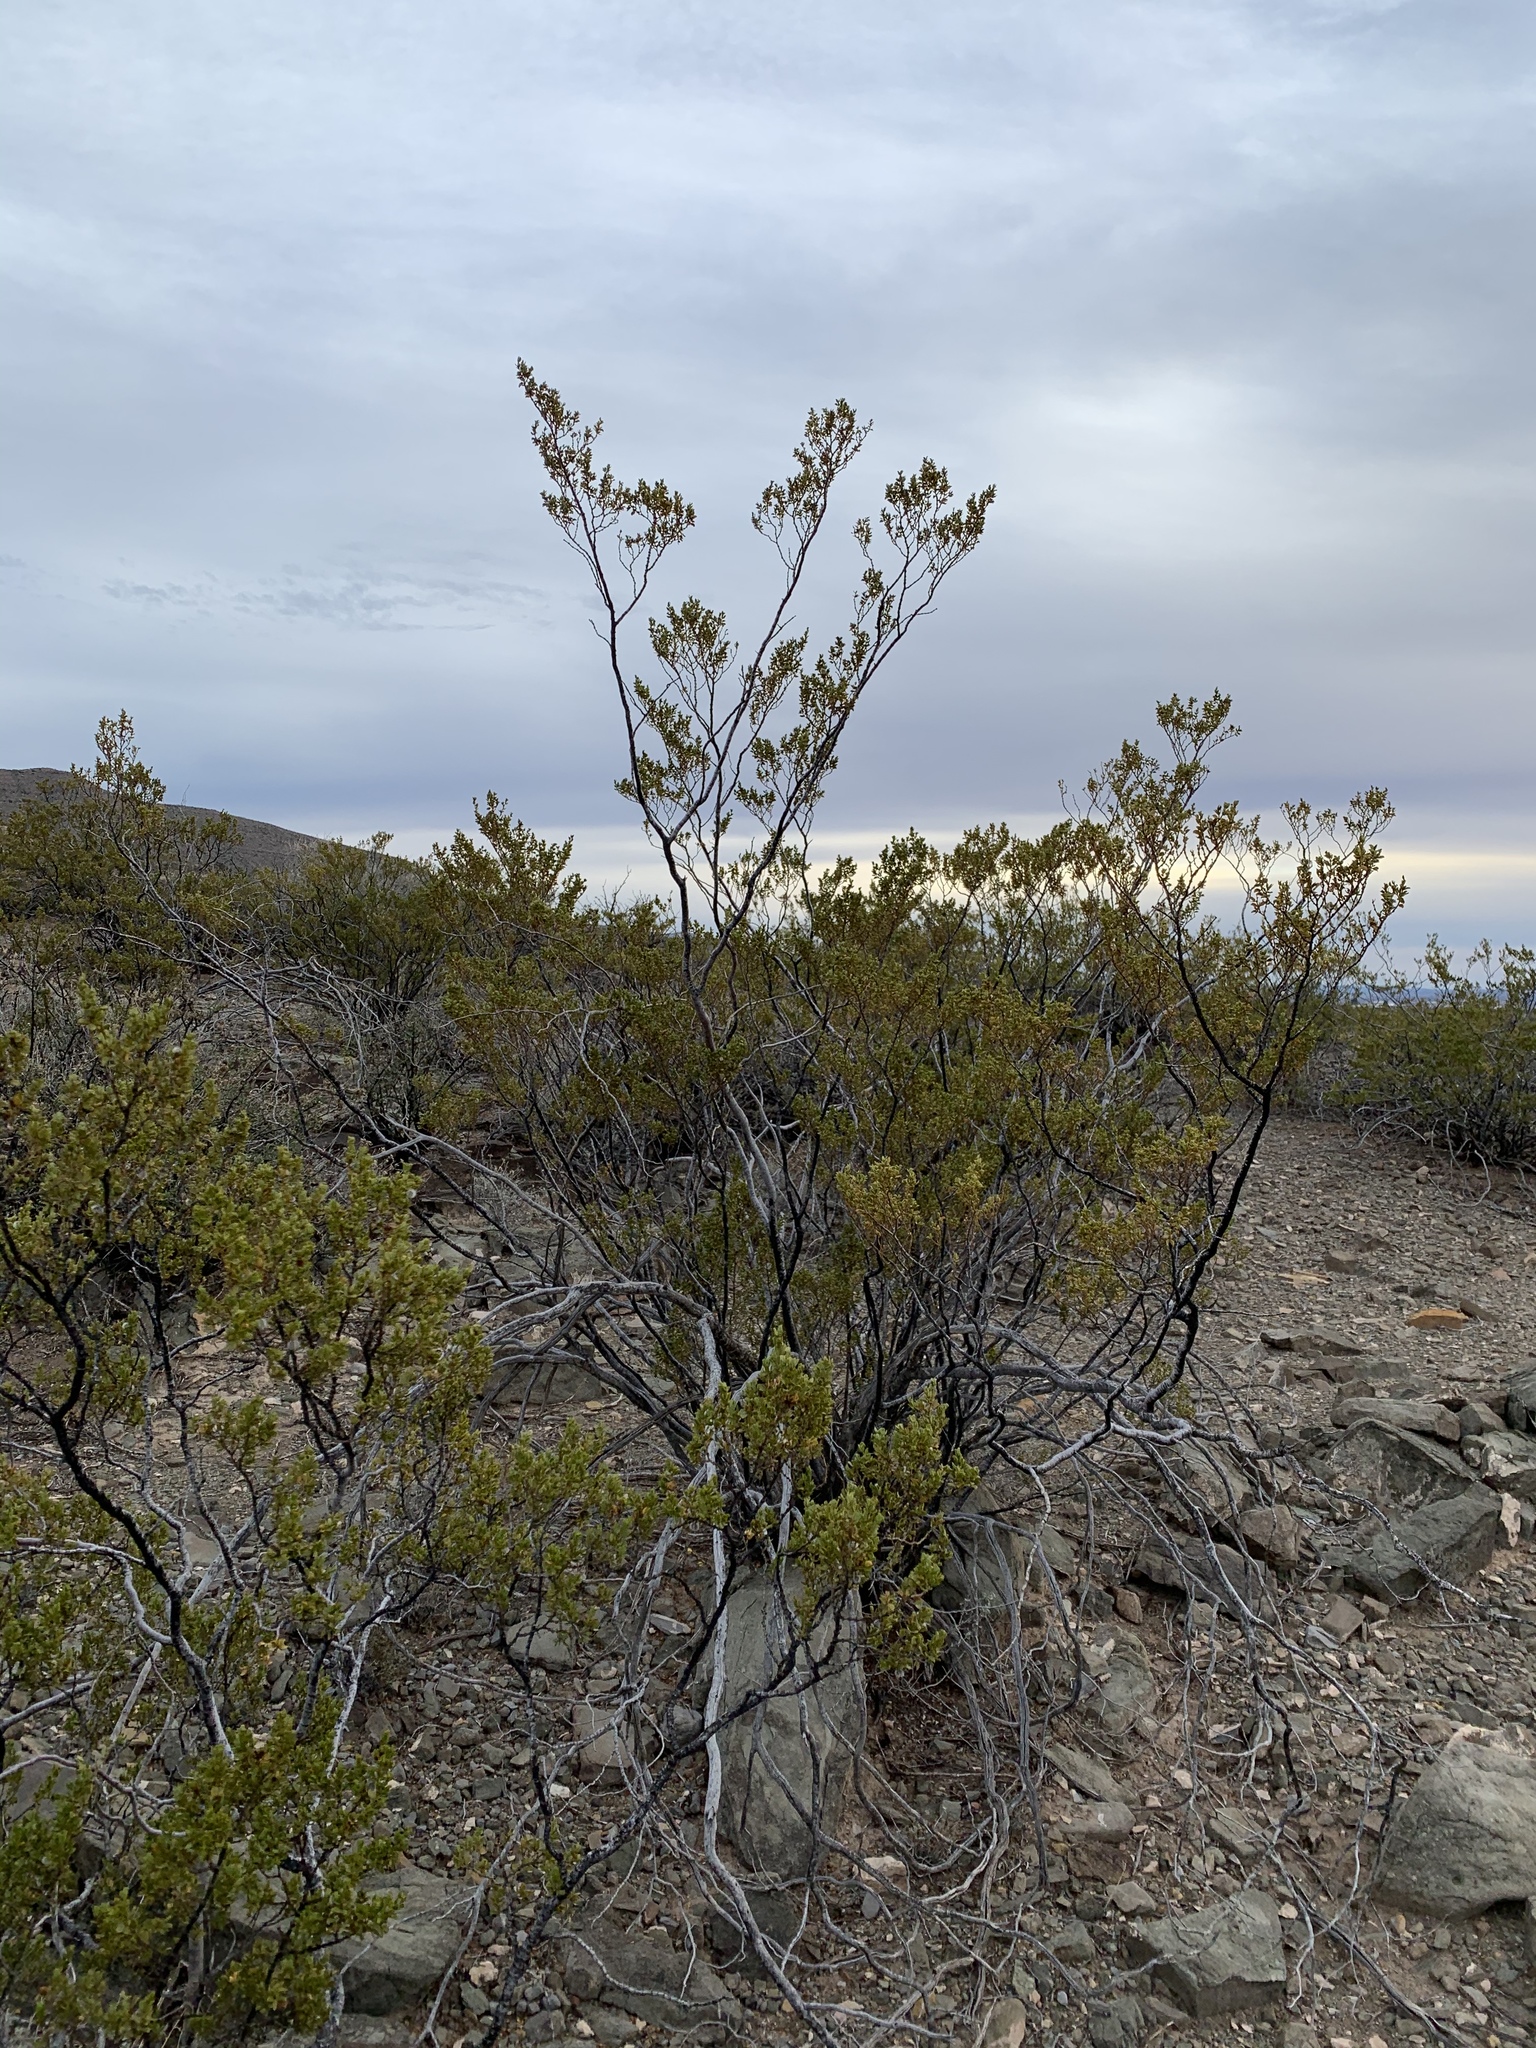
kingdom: Plantae
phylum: Tracheophyta
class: Magnoliopsida
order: Zygophyllales
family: Zygophyllaceae
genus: Larrea
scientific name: Larrea tridentata
